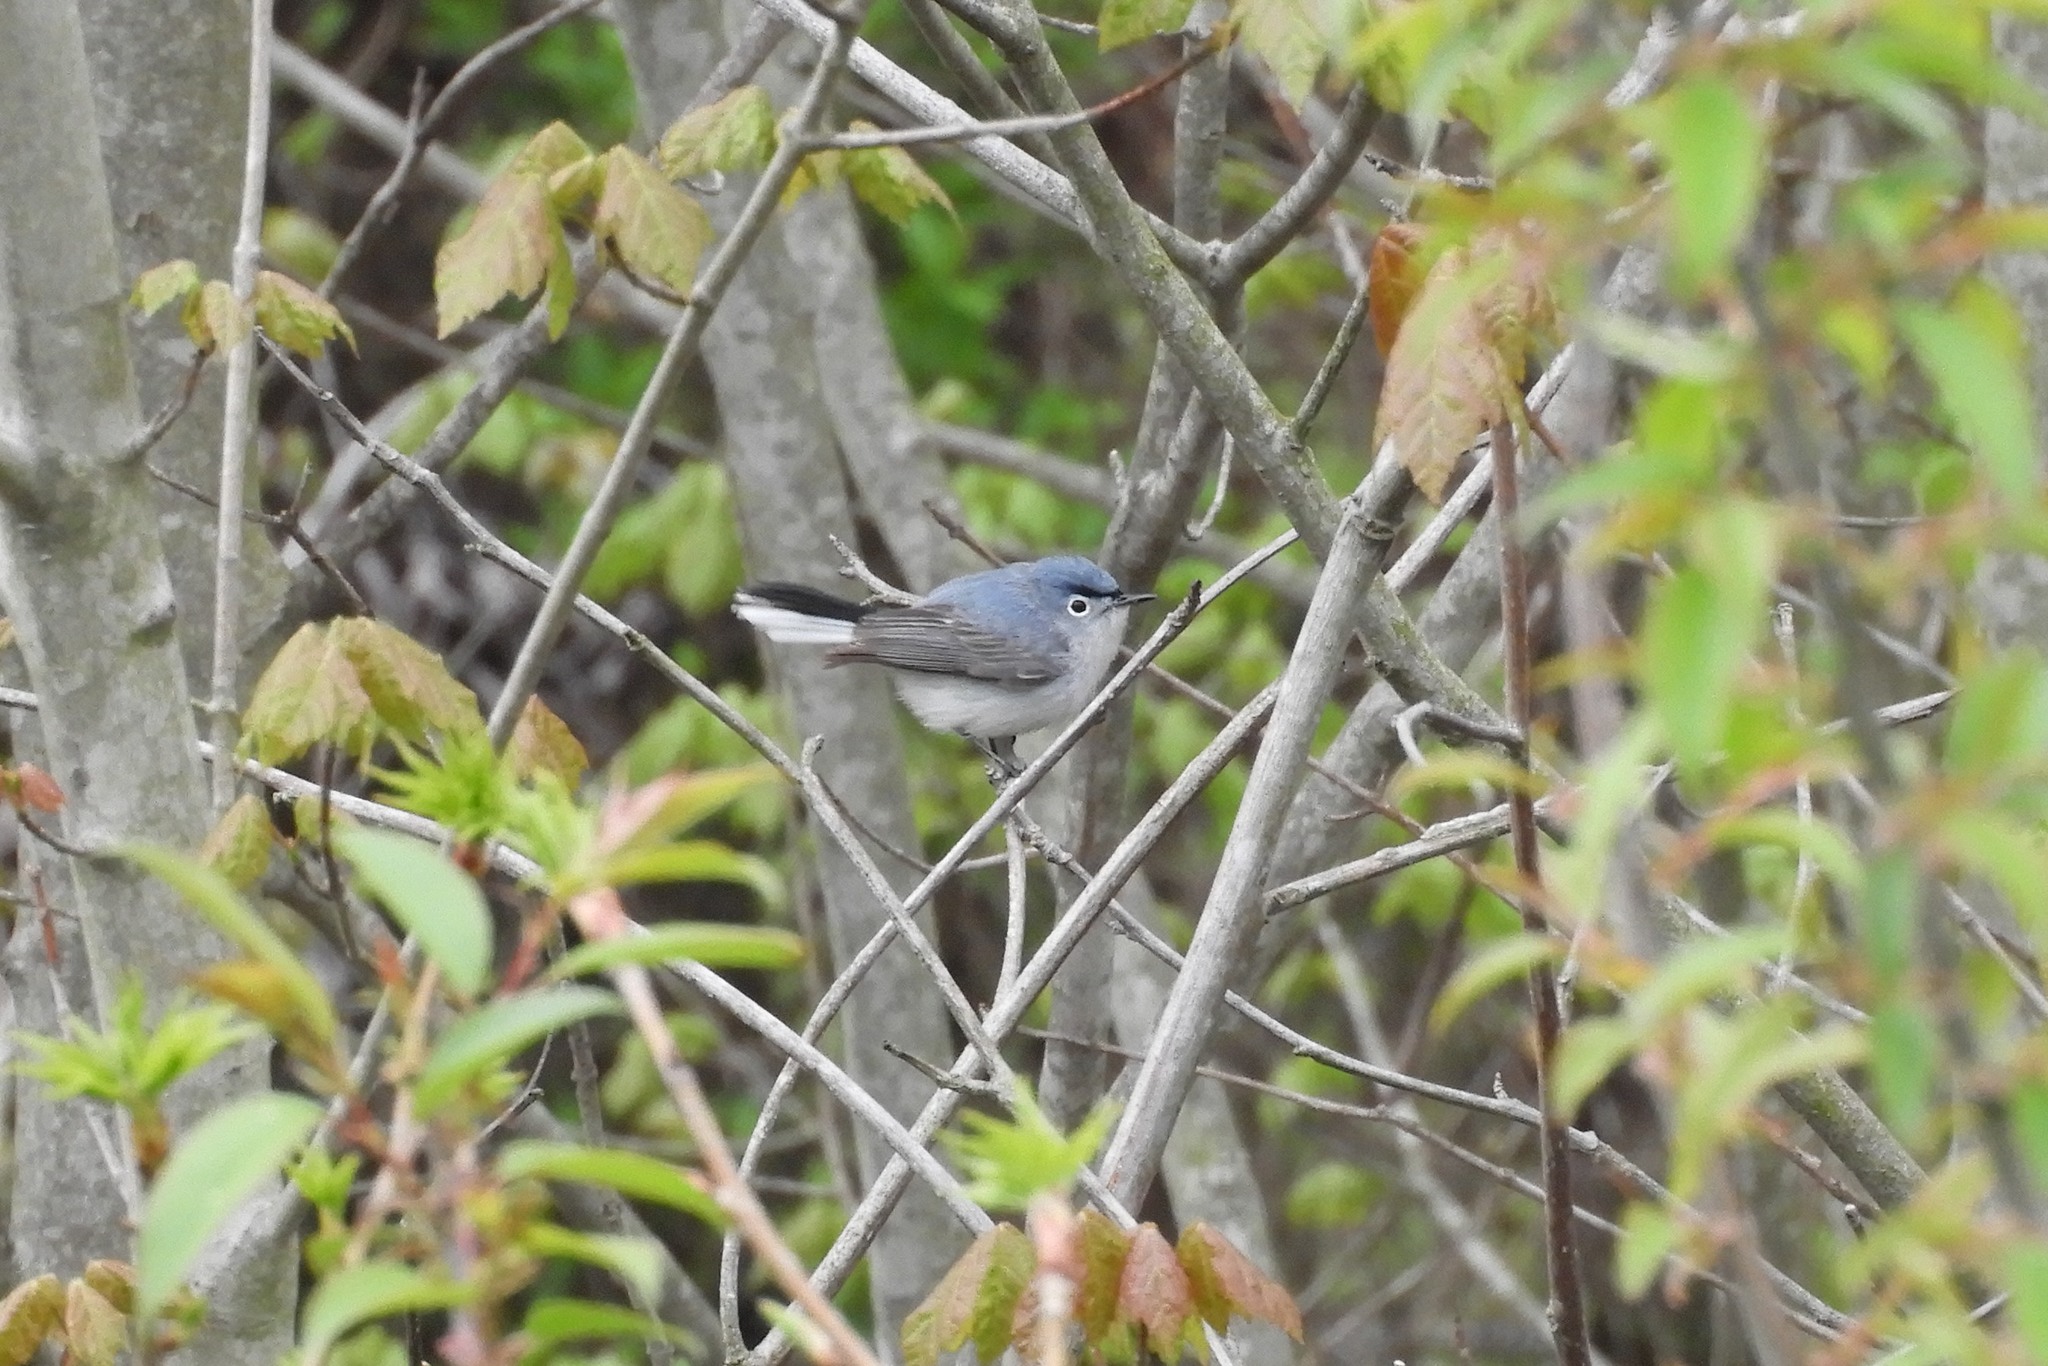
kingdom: Animalia
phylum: Chordata
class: Aves
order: Passeriformes
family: Polioptilidae
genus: Polioptila
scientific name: Polioptila caerulea
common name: Blue-gray gnatcatcher
